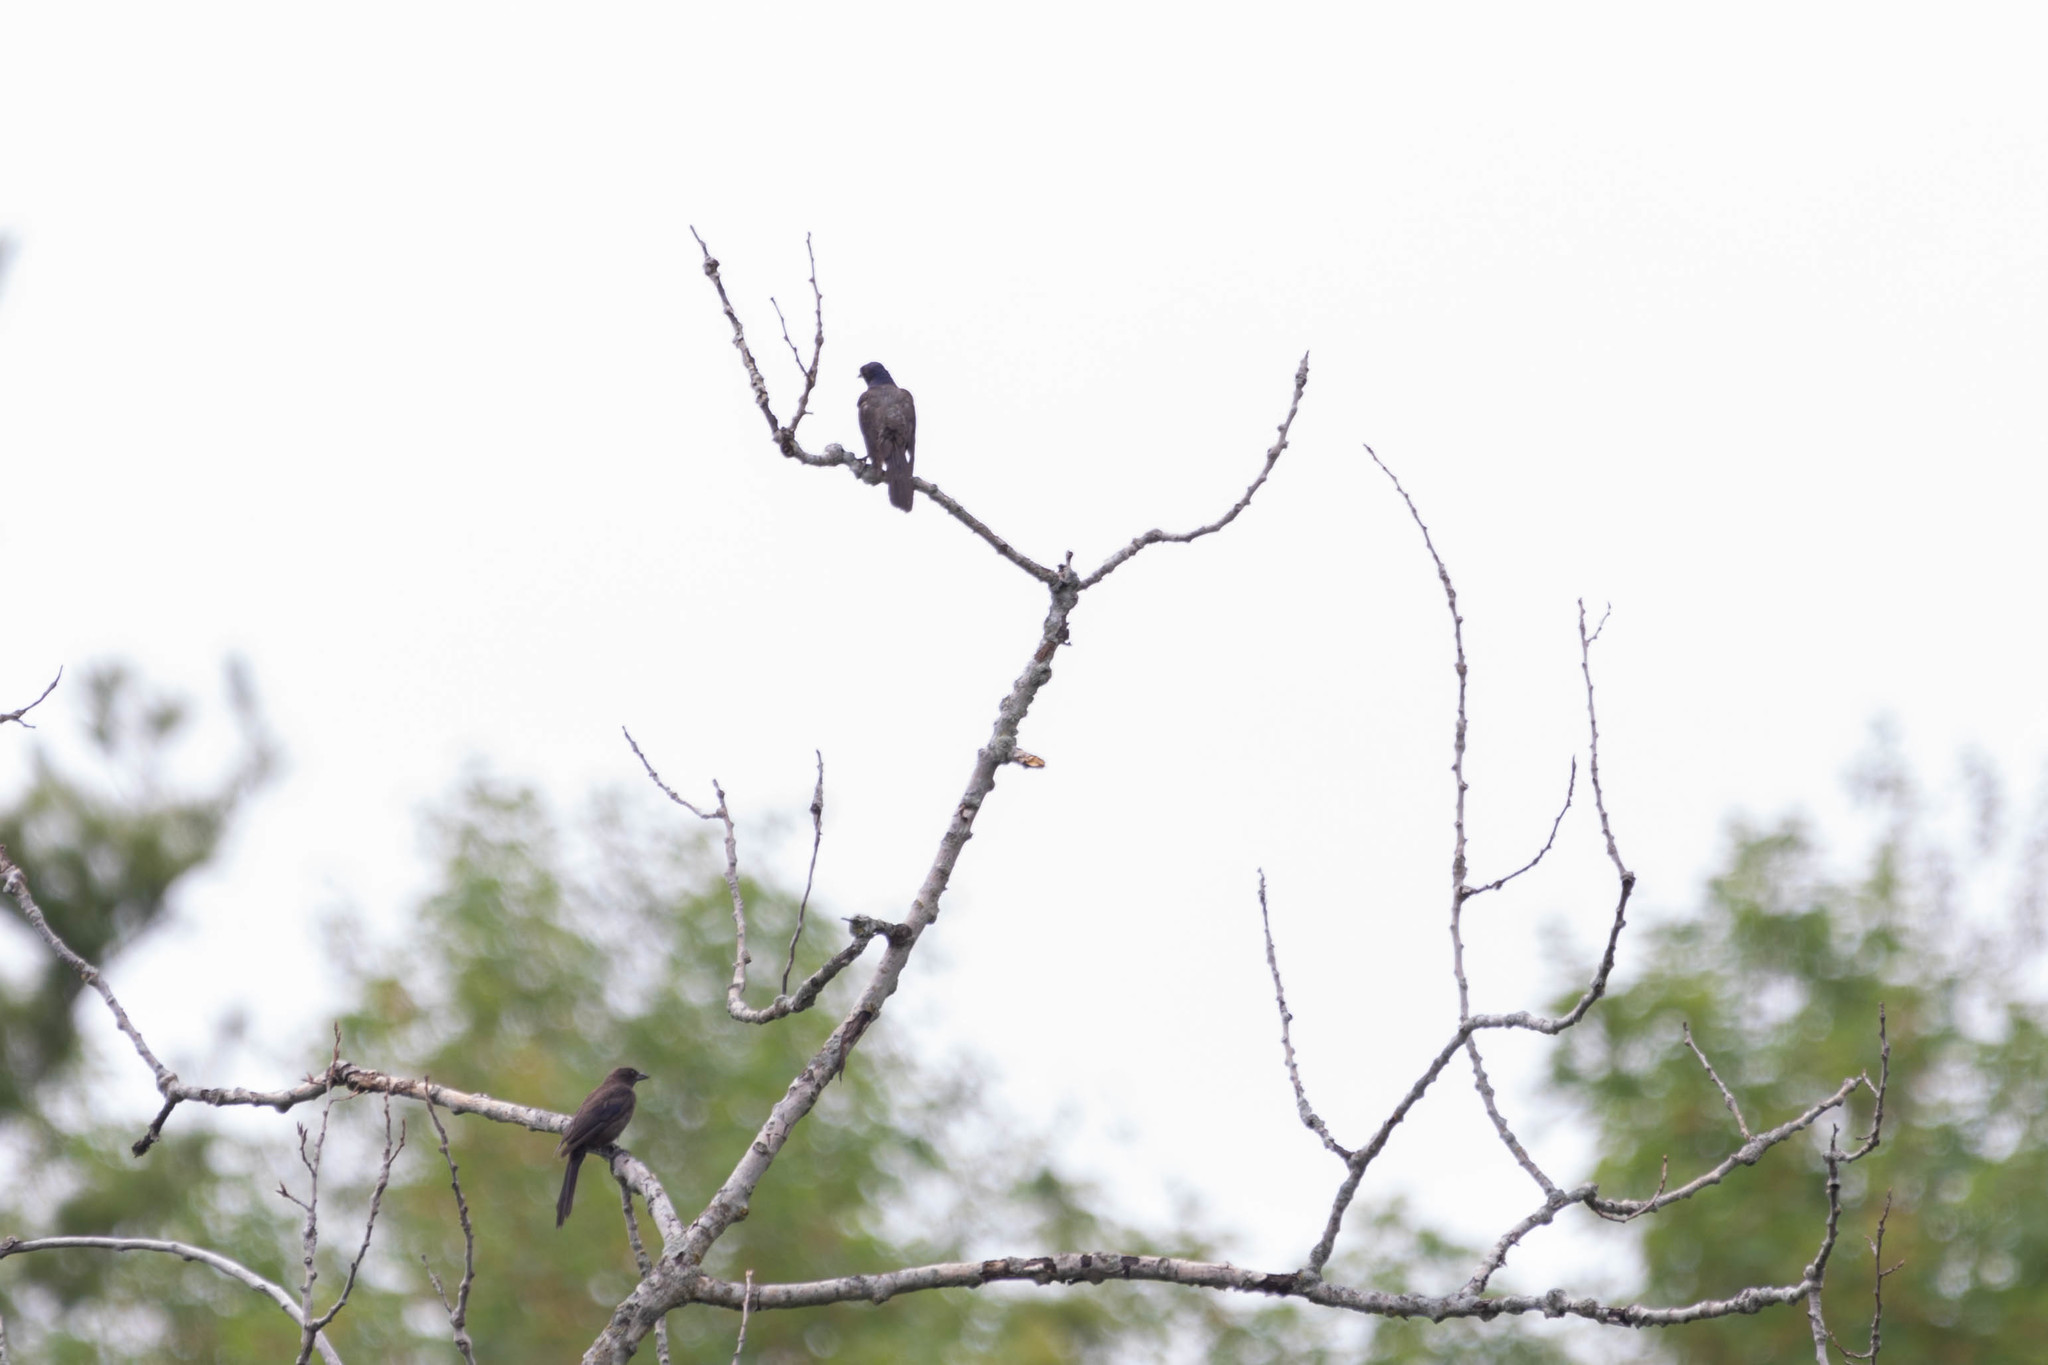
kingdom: Animalia
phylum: Chordata
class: Aves
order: Passeriformes
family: Icteridae
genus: Quiscalus
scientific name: Quiscalus quiscula
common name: Common grackle
